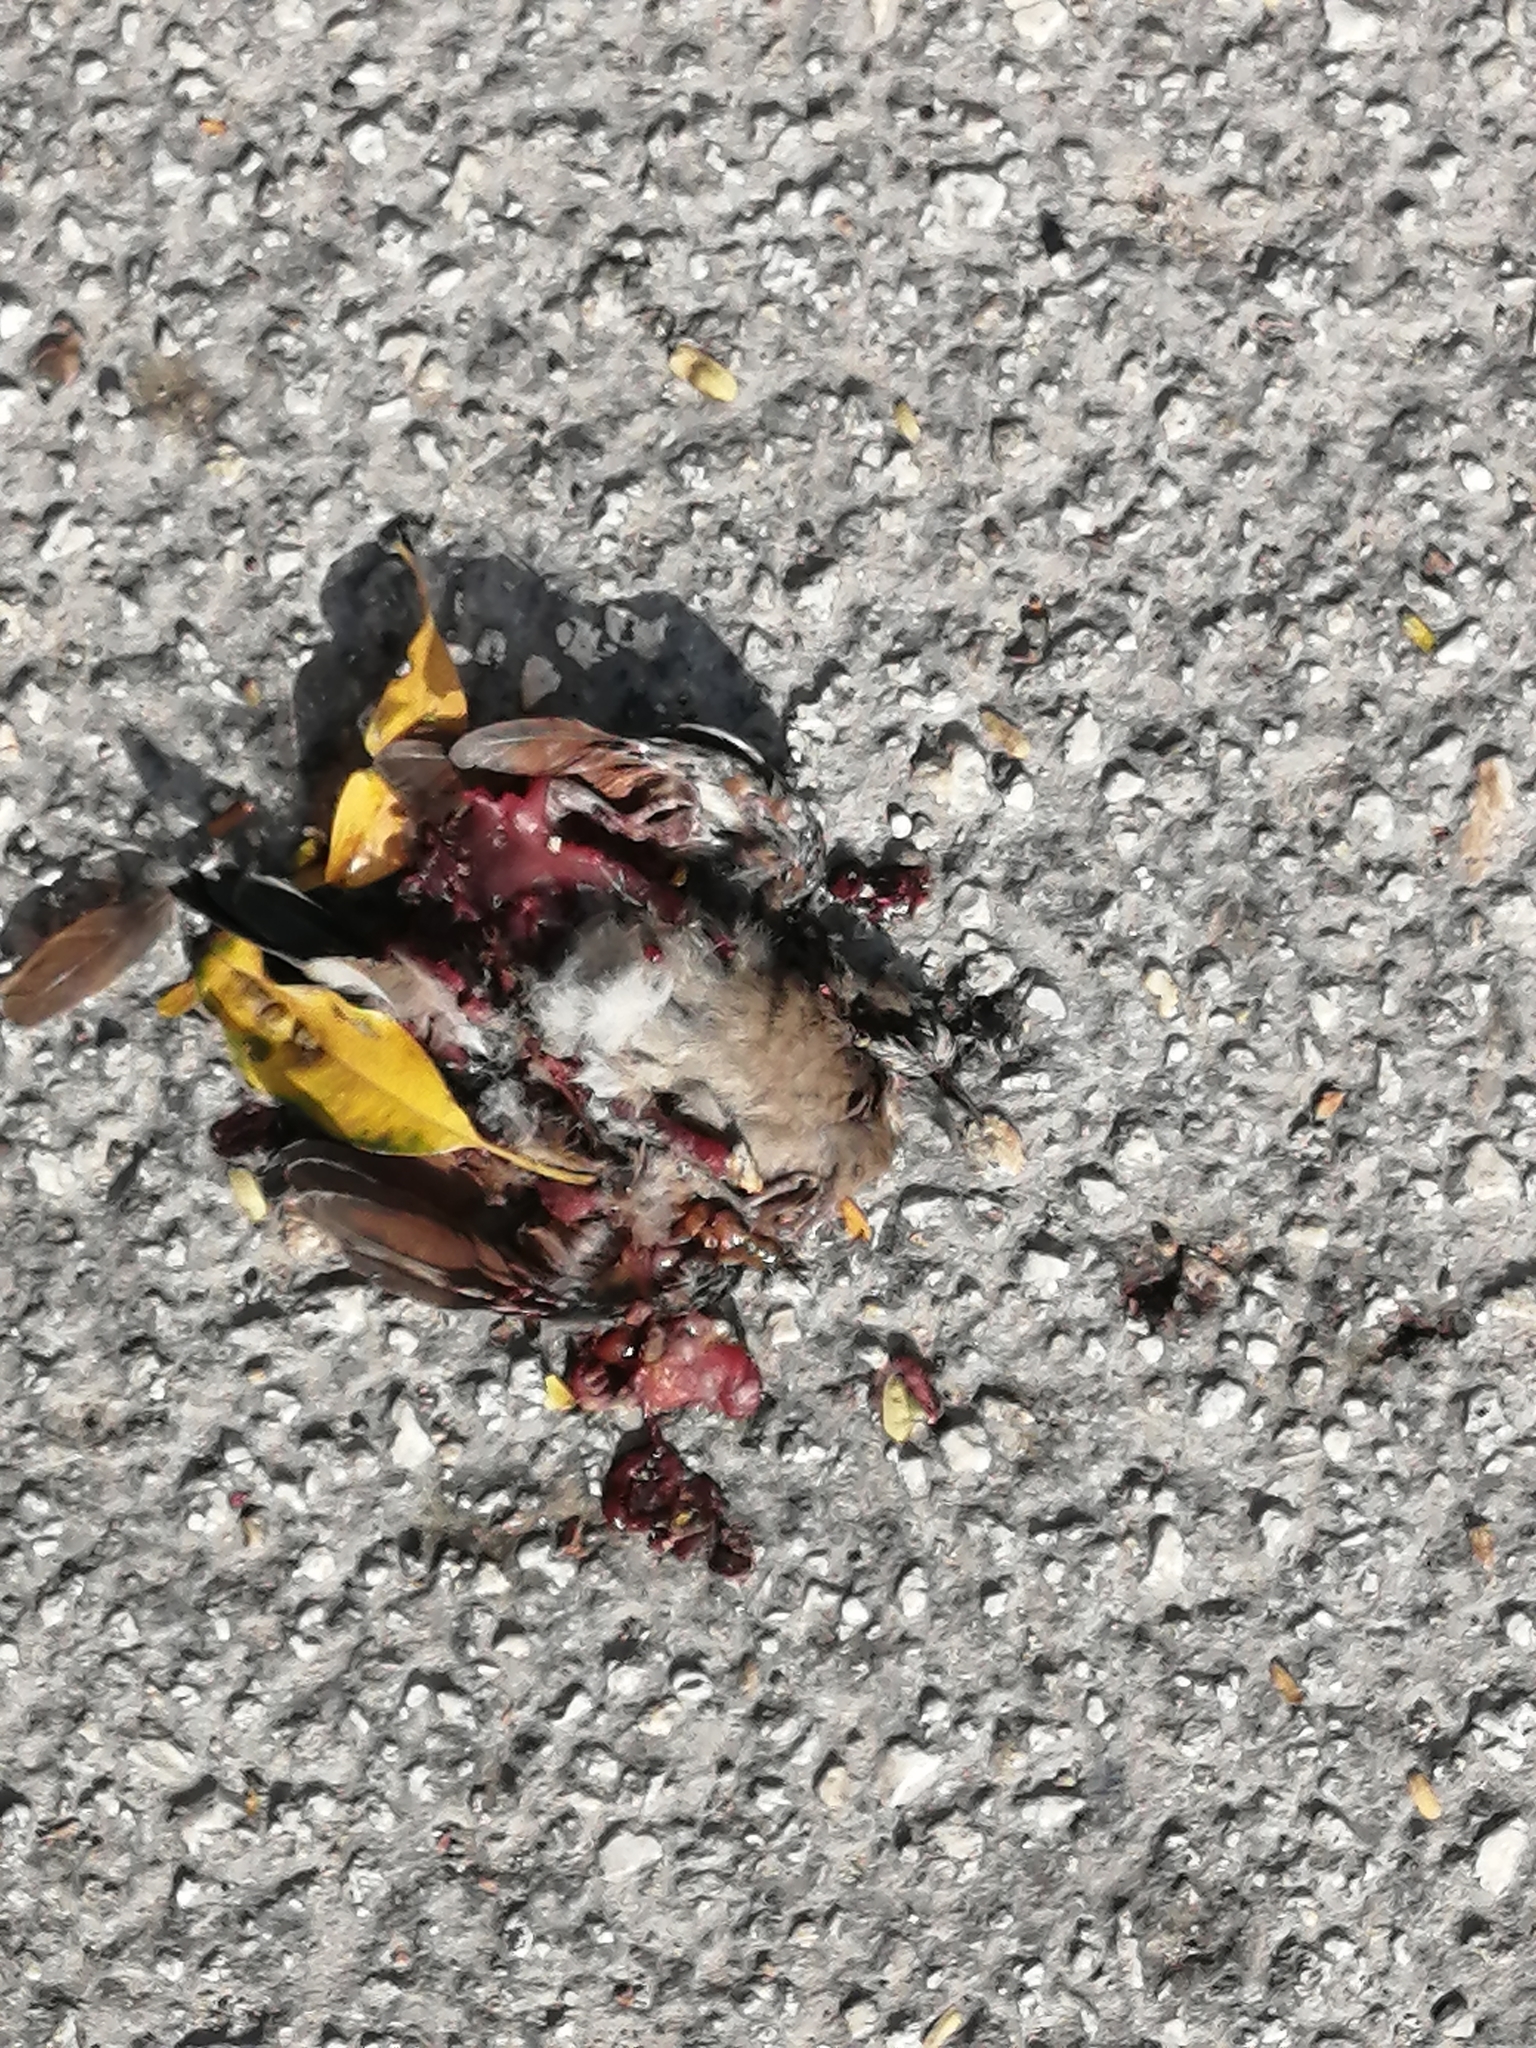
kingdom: Animalia
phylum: Chordata
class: Aves
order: Columbiformes
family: Columbidae
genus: Columbina
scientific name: Columbina passerina
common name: Common ground-dove
